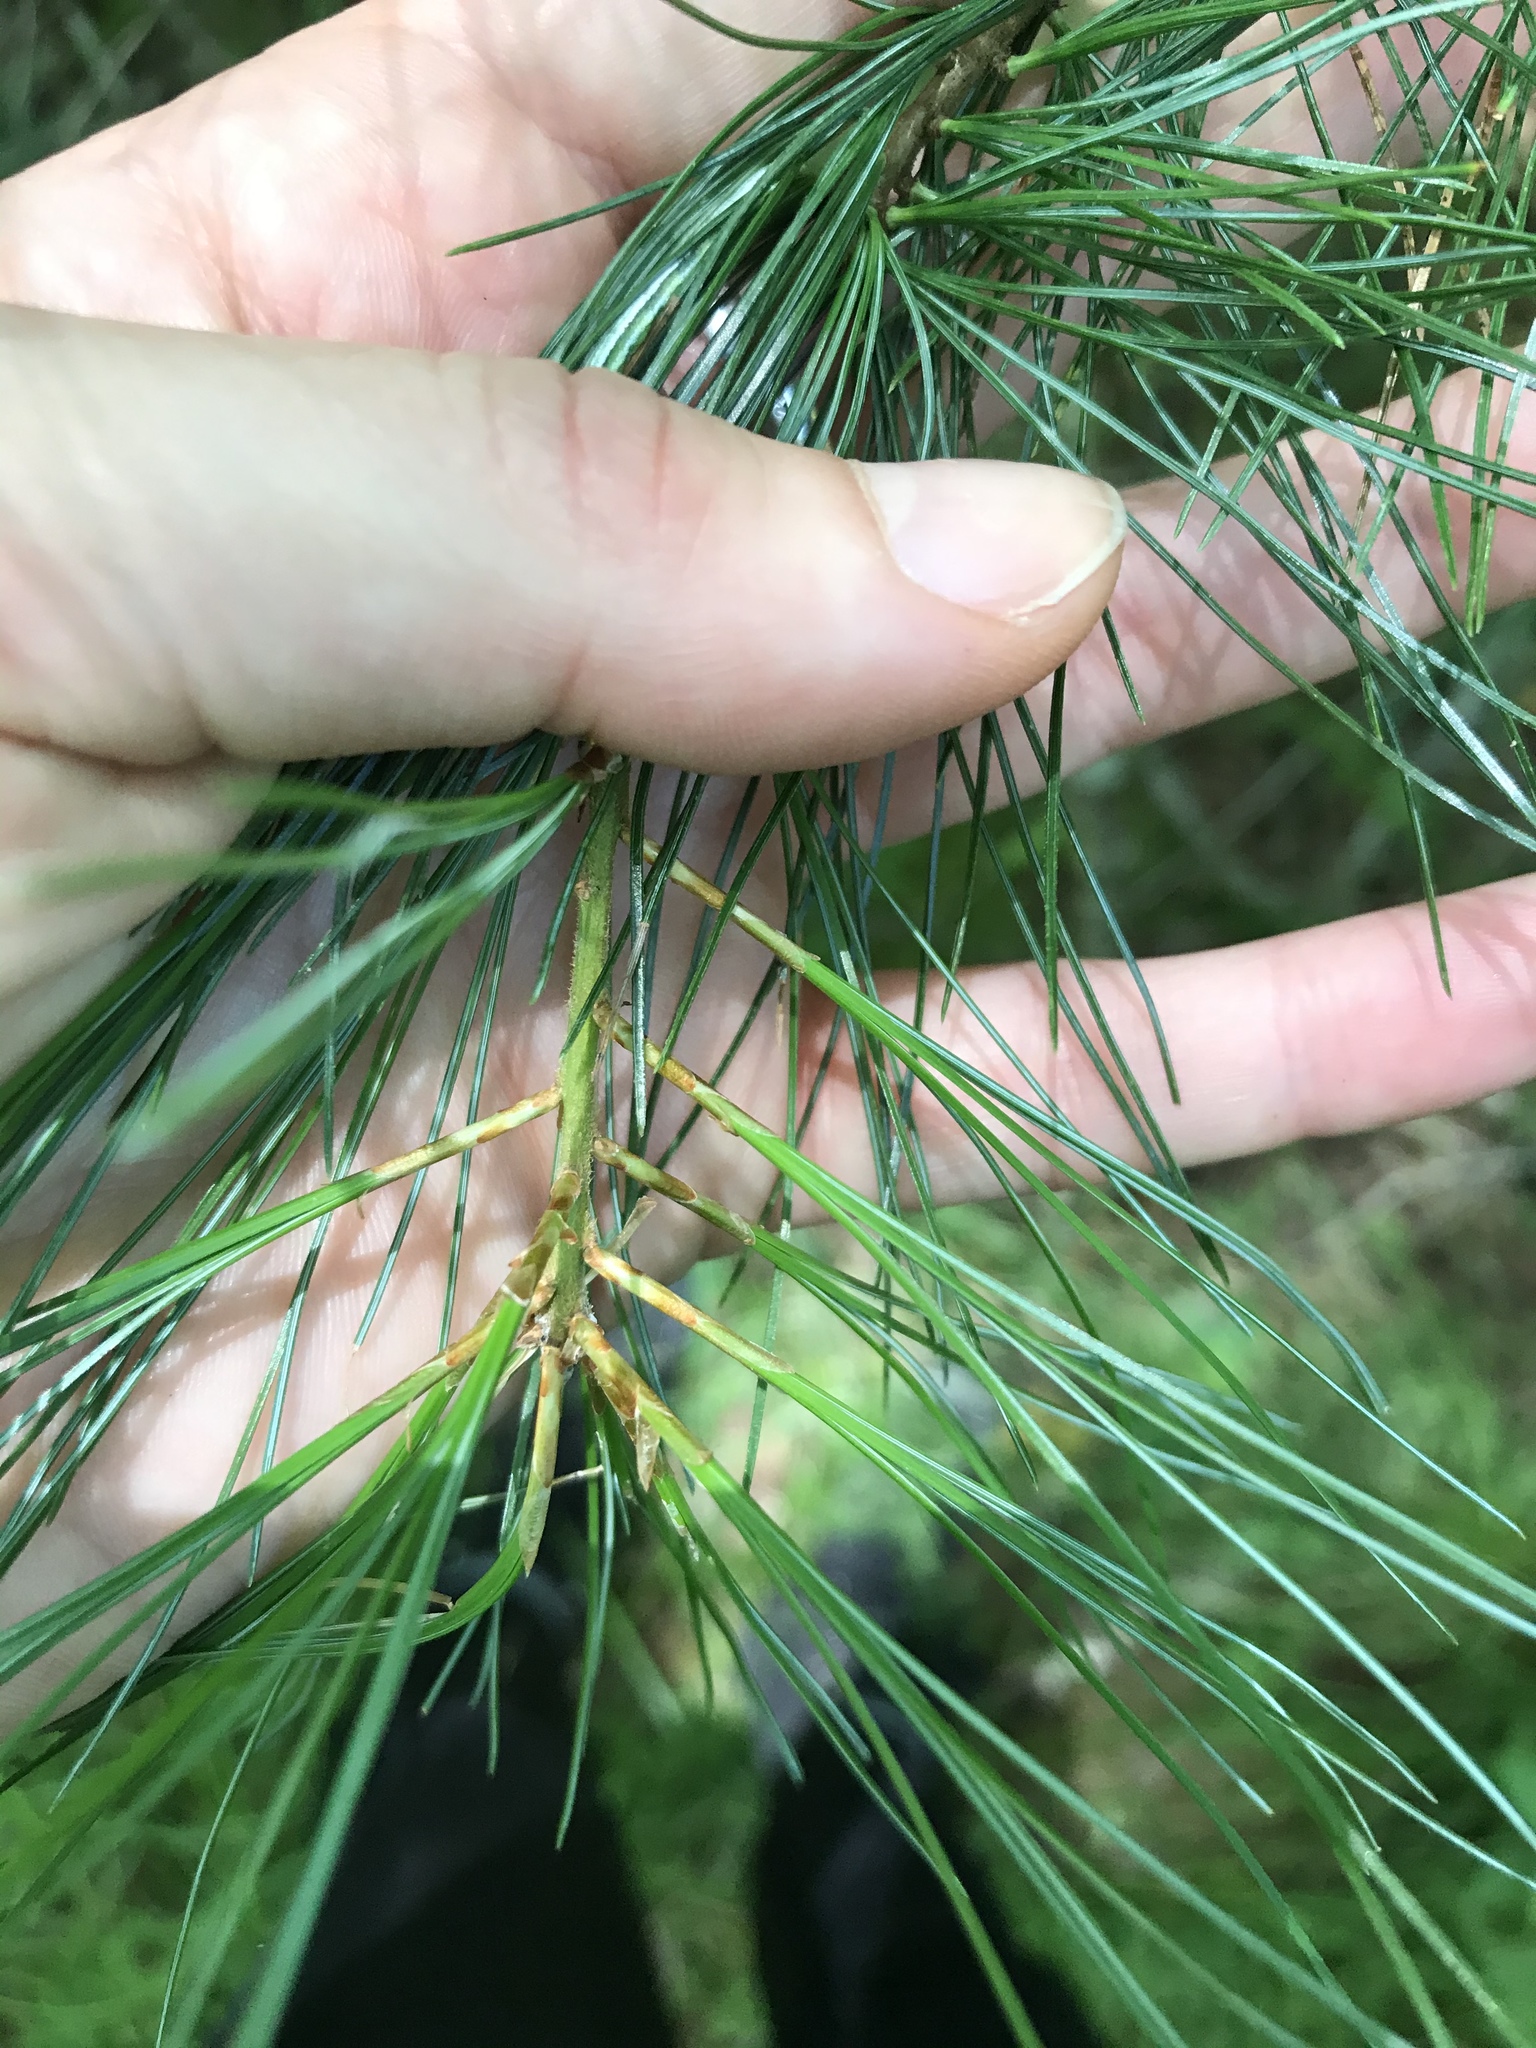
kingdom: Plantae
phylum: Tracheophyta
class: Pinopsida
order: Pinales
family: Pinaceae
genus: Pinus
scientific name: Pinus strobus
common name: Weymouth pine
